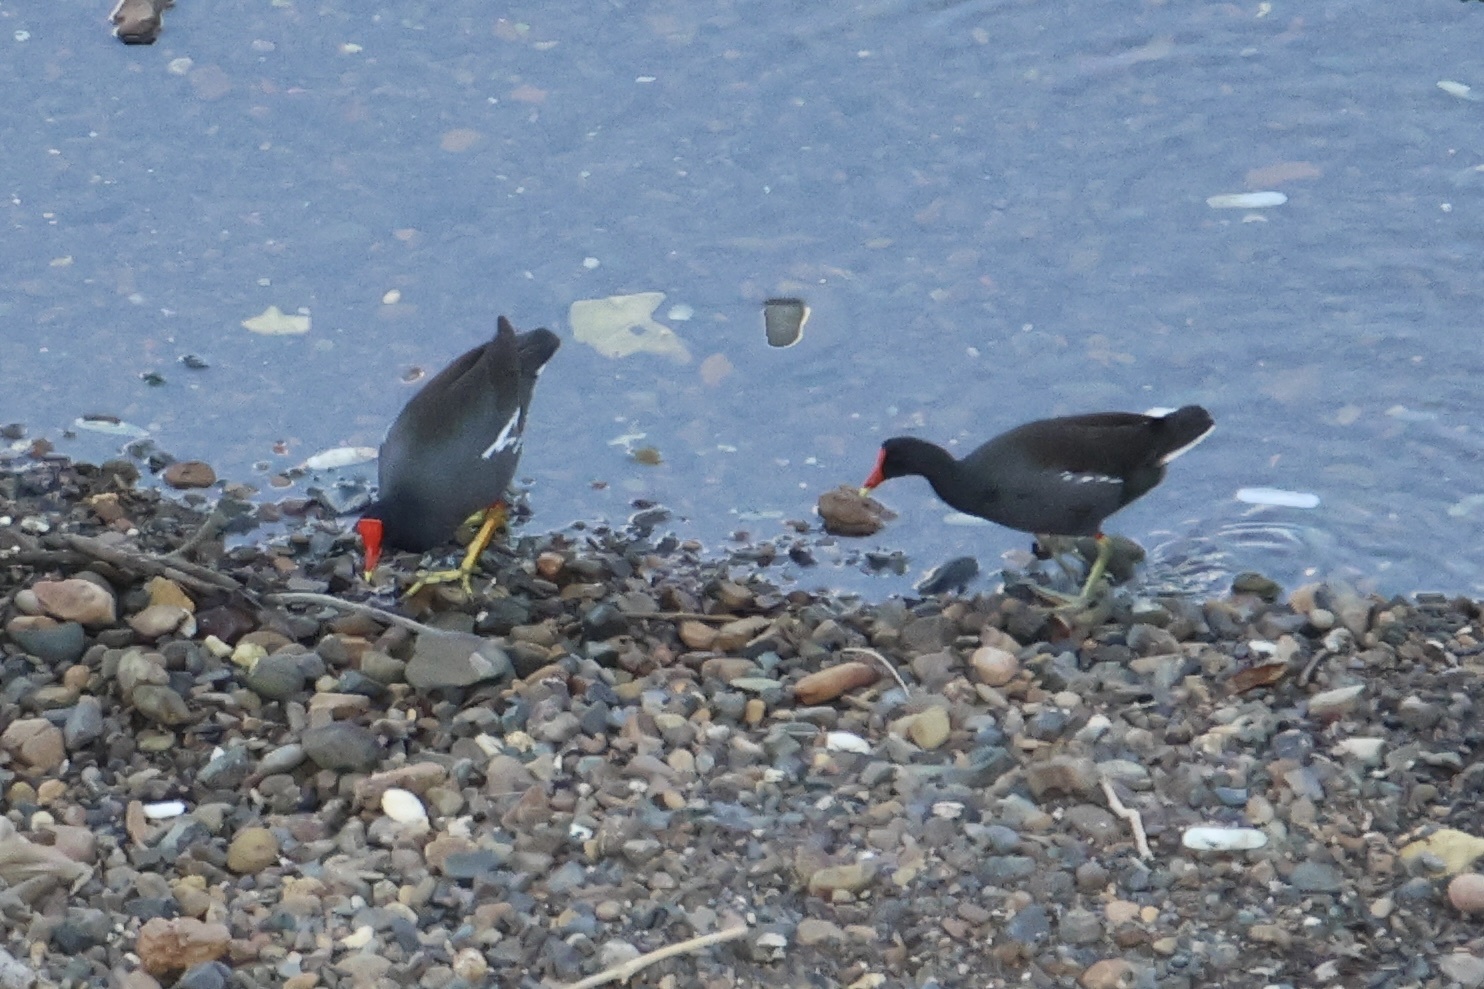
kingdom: Animalia
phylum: Chordata
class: Aves
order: Gruiformes
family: Rallidae
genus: Gallinula
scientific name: Gallinula chloropus
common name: Common moorhen
